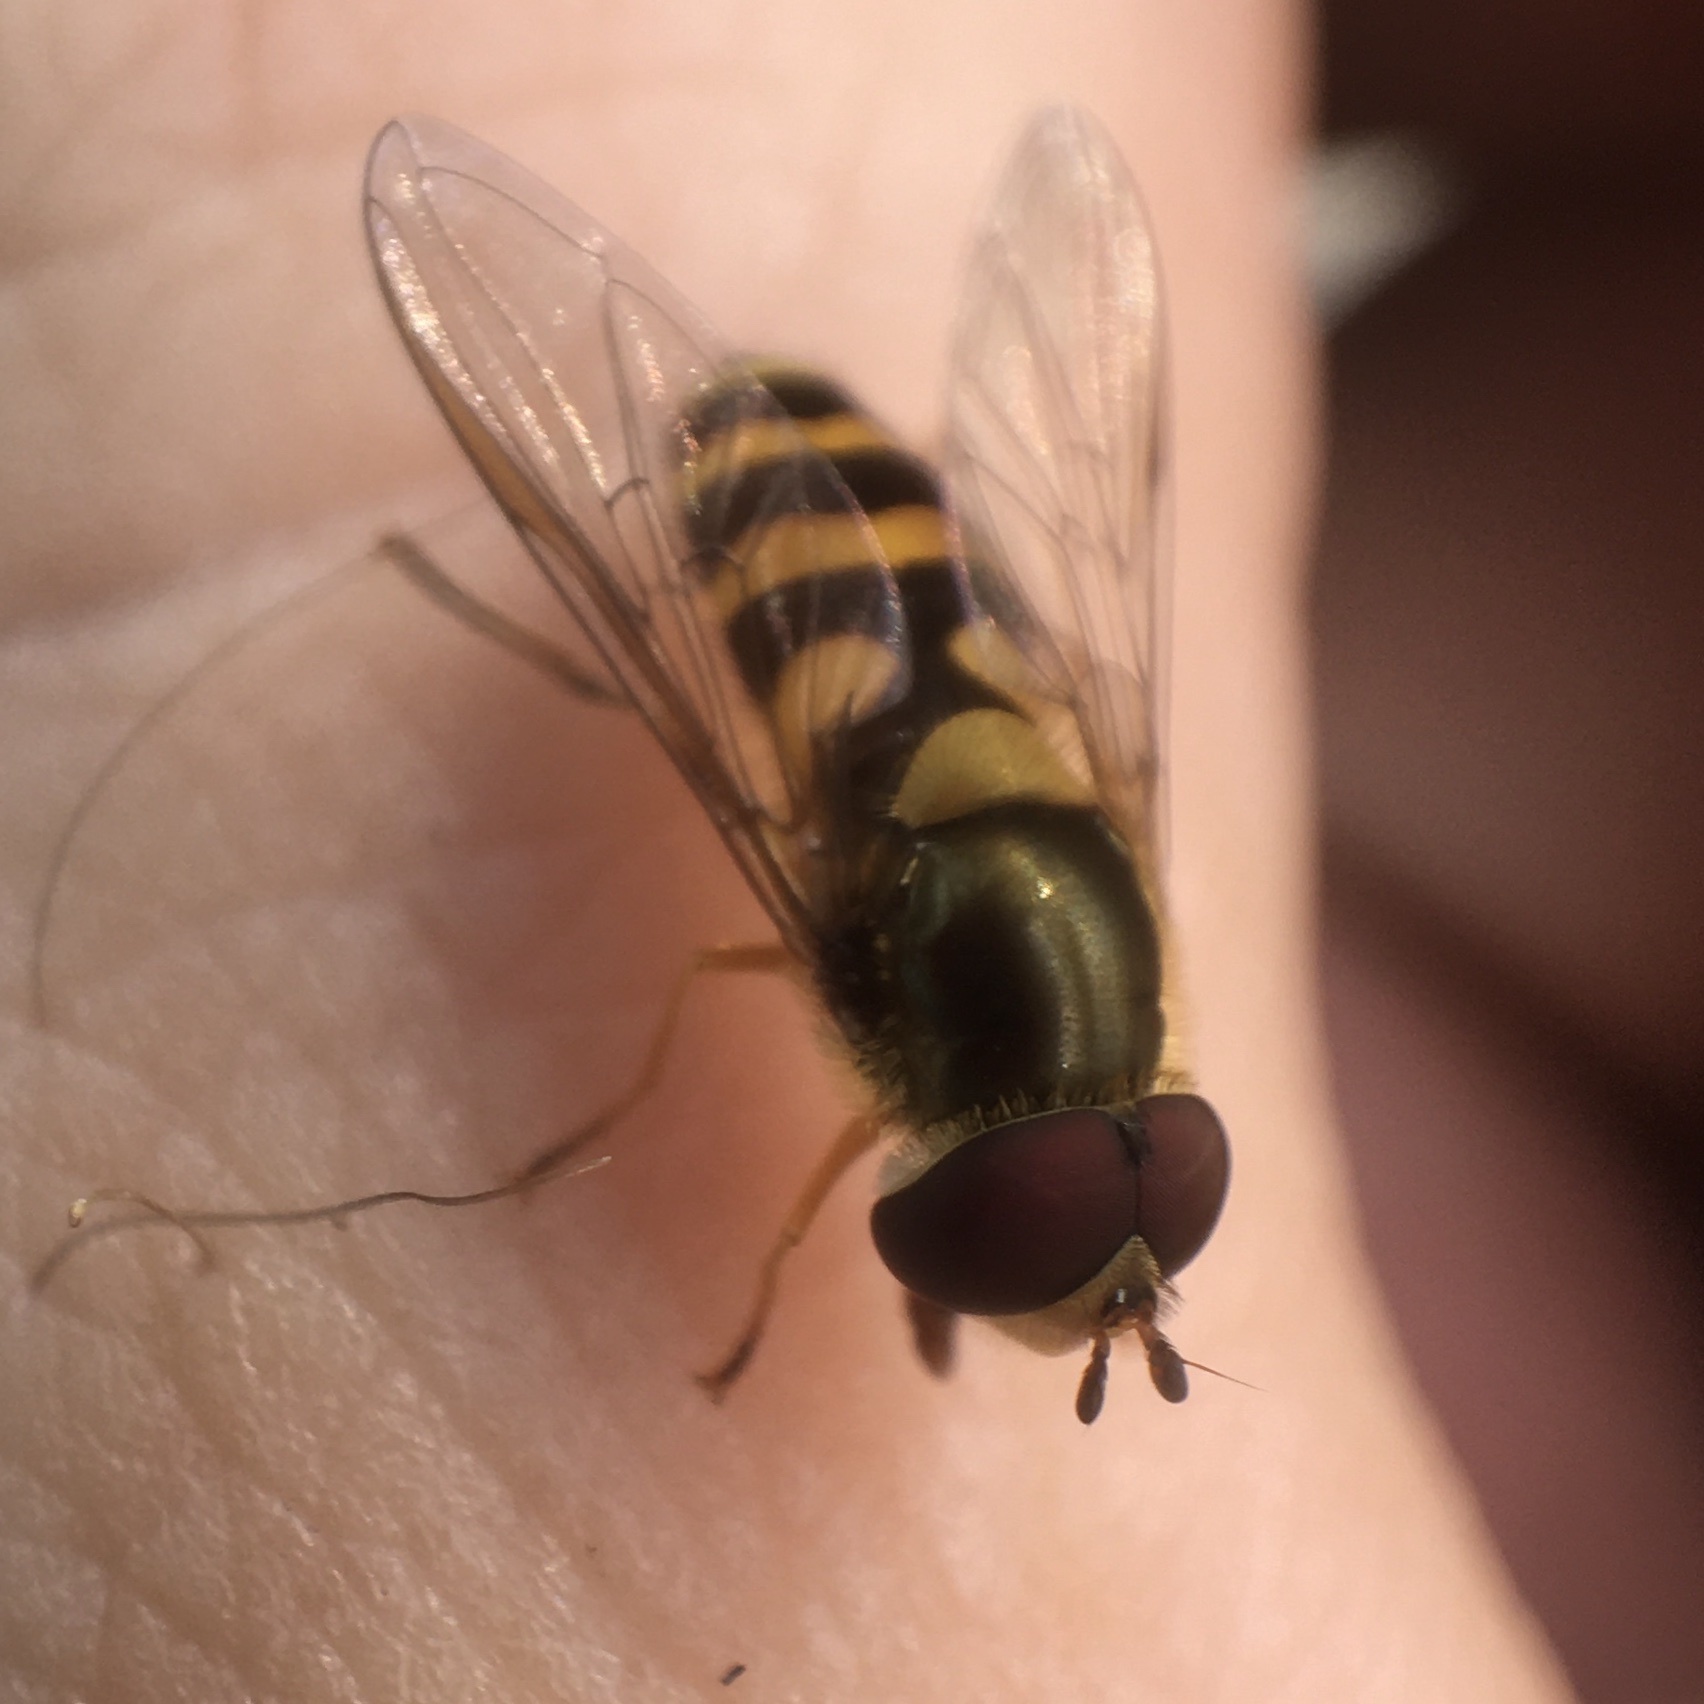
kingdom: Animalia
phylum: Arthropoda
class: Insecta
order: Diptera
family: Syrphidae
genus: Syrphus
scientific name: Syrphus
